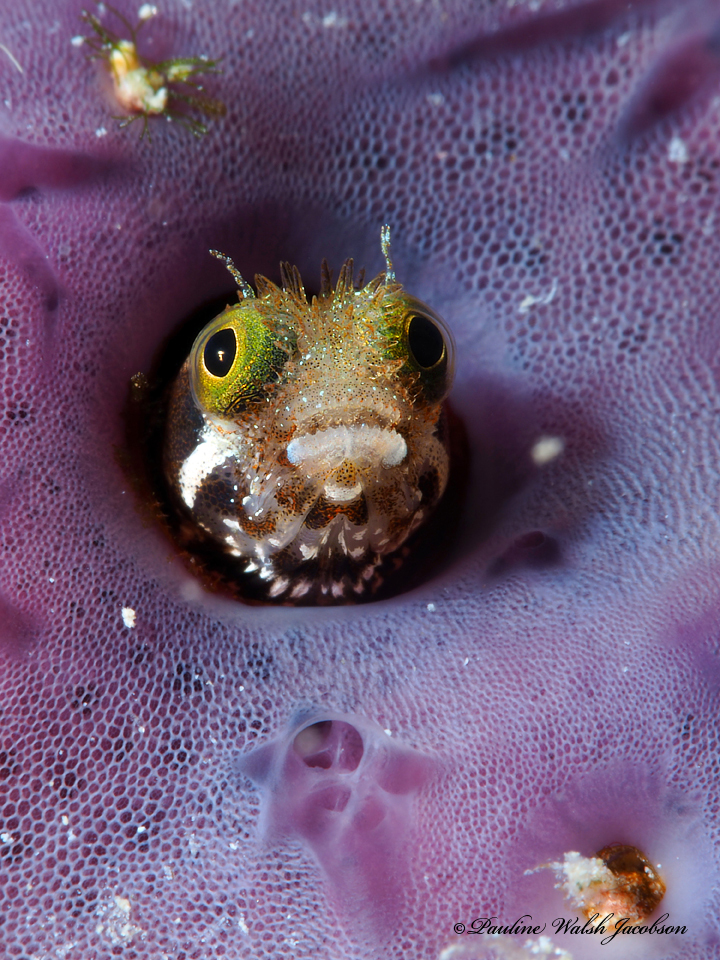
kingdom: Animalia
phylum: Chordata
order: Perciformes
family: Chaenopsidae
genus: Acanthemblemaria
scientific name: Acanthemblemaria spinosa
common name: Spinyhead blenny
